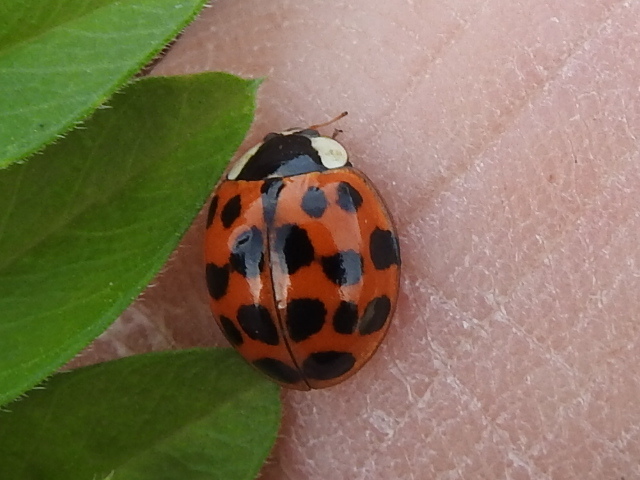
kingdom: Animalia
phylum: Arthropoda
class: Insecta
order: Coleoptera
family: Coccinellidae
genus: Harmonia
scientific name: Harmonia axyridis
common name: Harlequin ladybird
